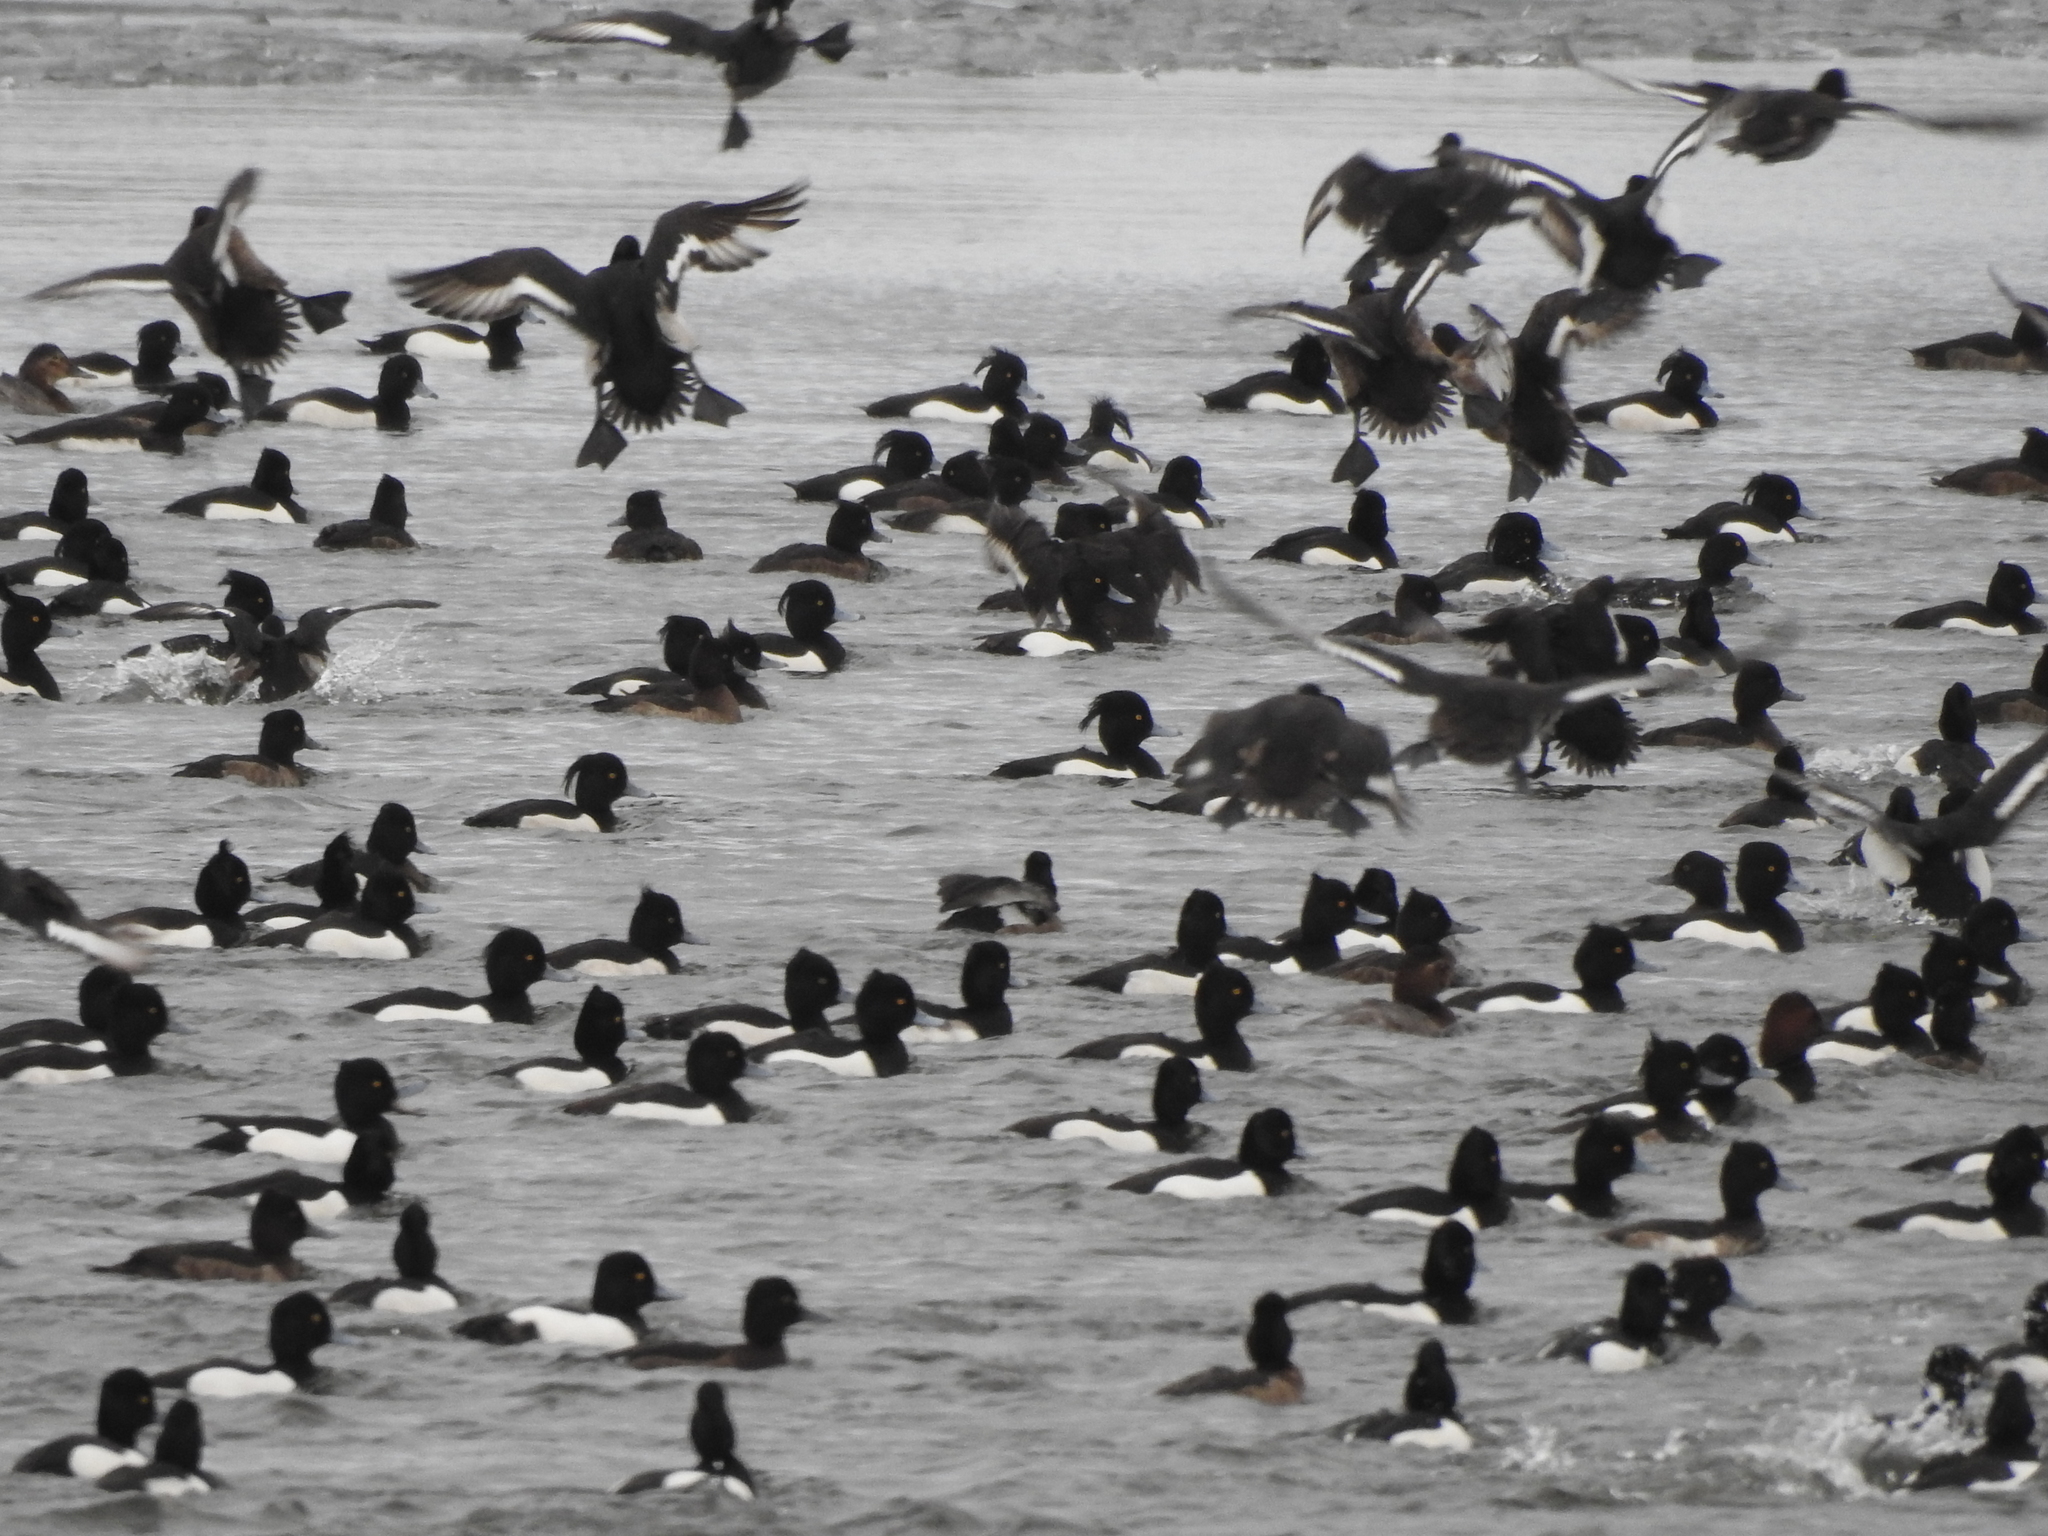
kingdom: Animalia
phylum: Chordata
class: Aves
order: Anseriformes
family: Anatidae
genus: Aythya
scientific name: Aythya fuligula
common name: Tufted duck
